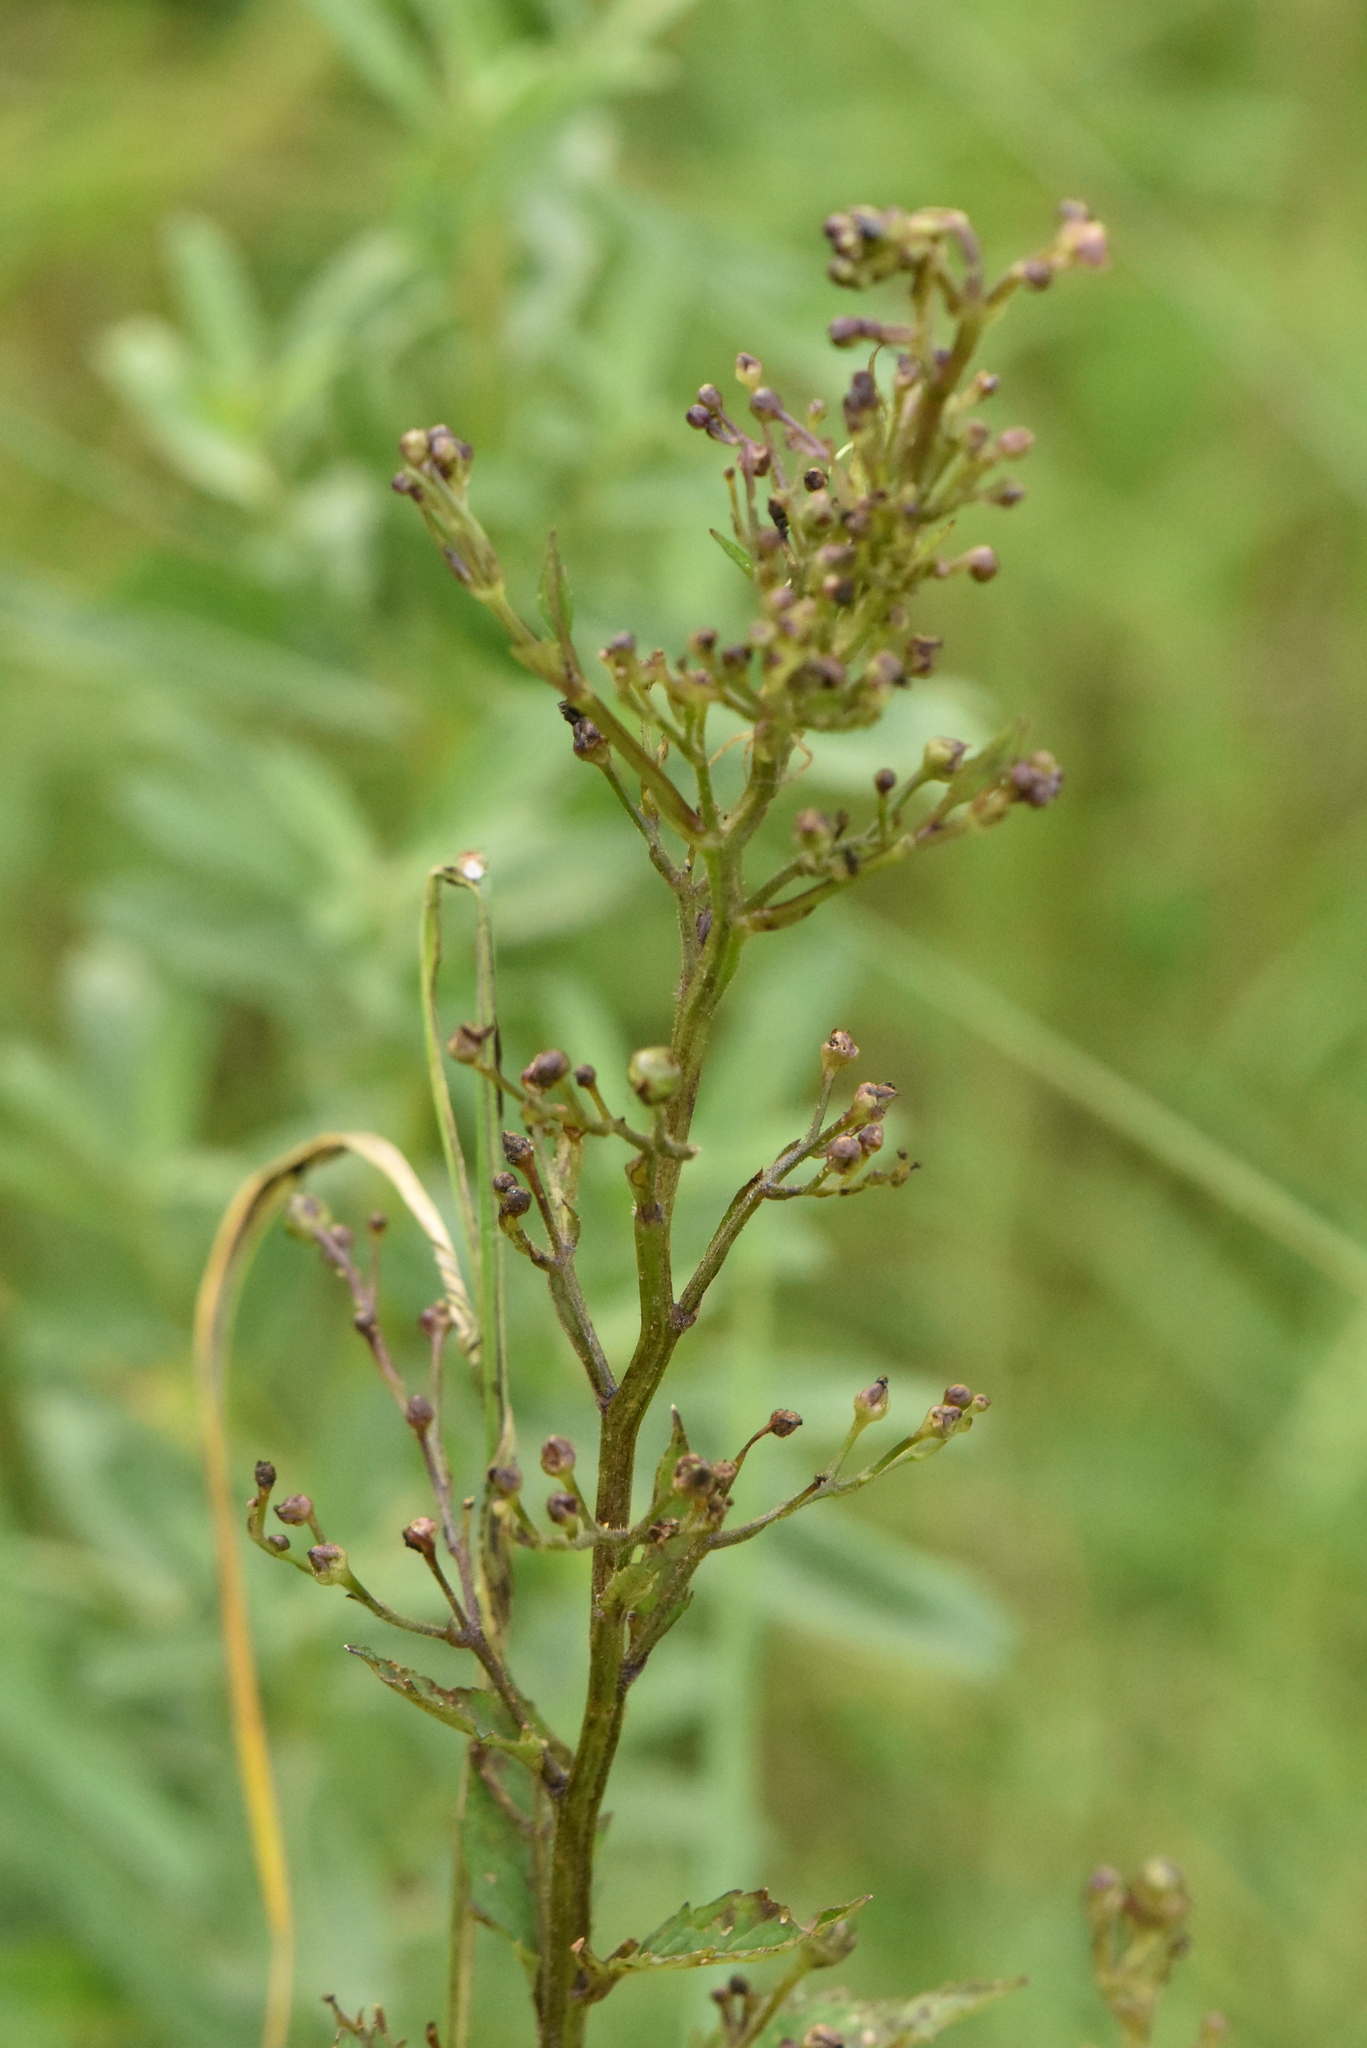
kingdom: Plantae
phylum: Tracheophyta
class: Magnoliopsida
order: Lamiales
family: Scrophulariaceae
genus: Scrophularia
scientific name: Scrophularia nodosa
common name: Common figwort
